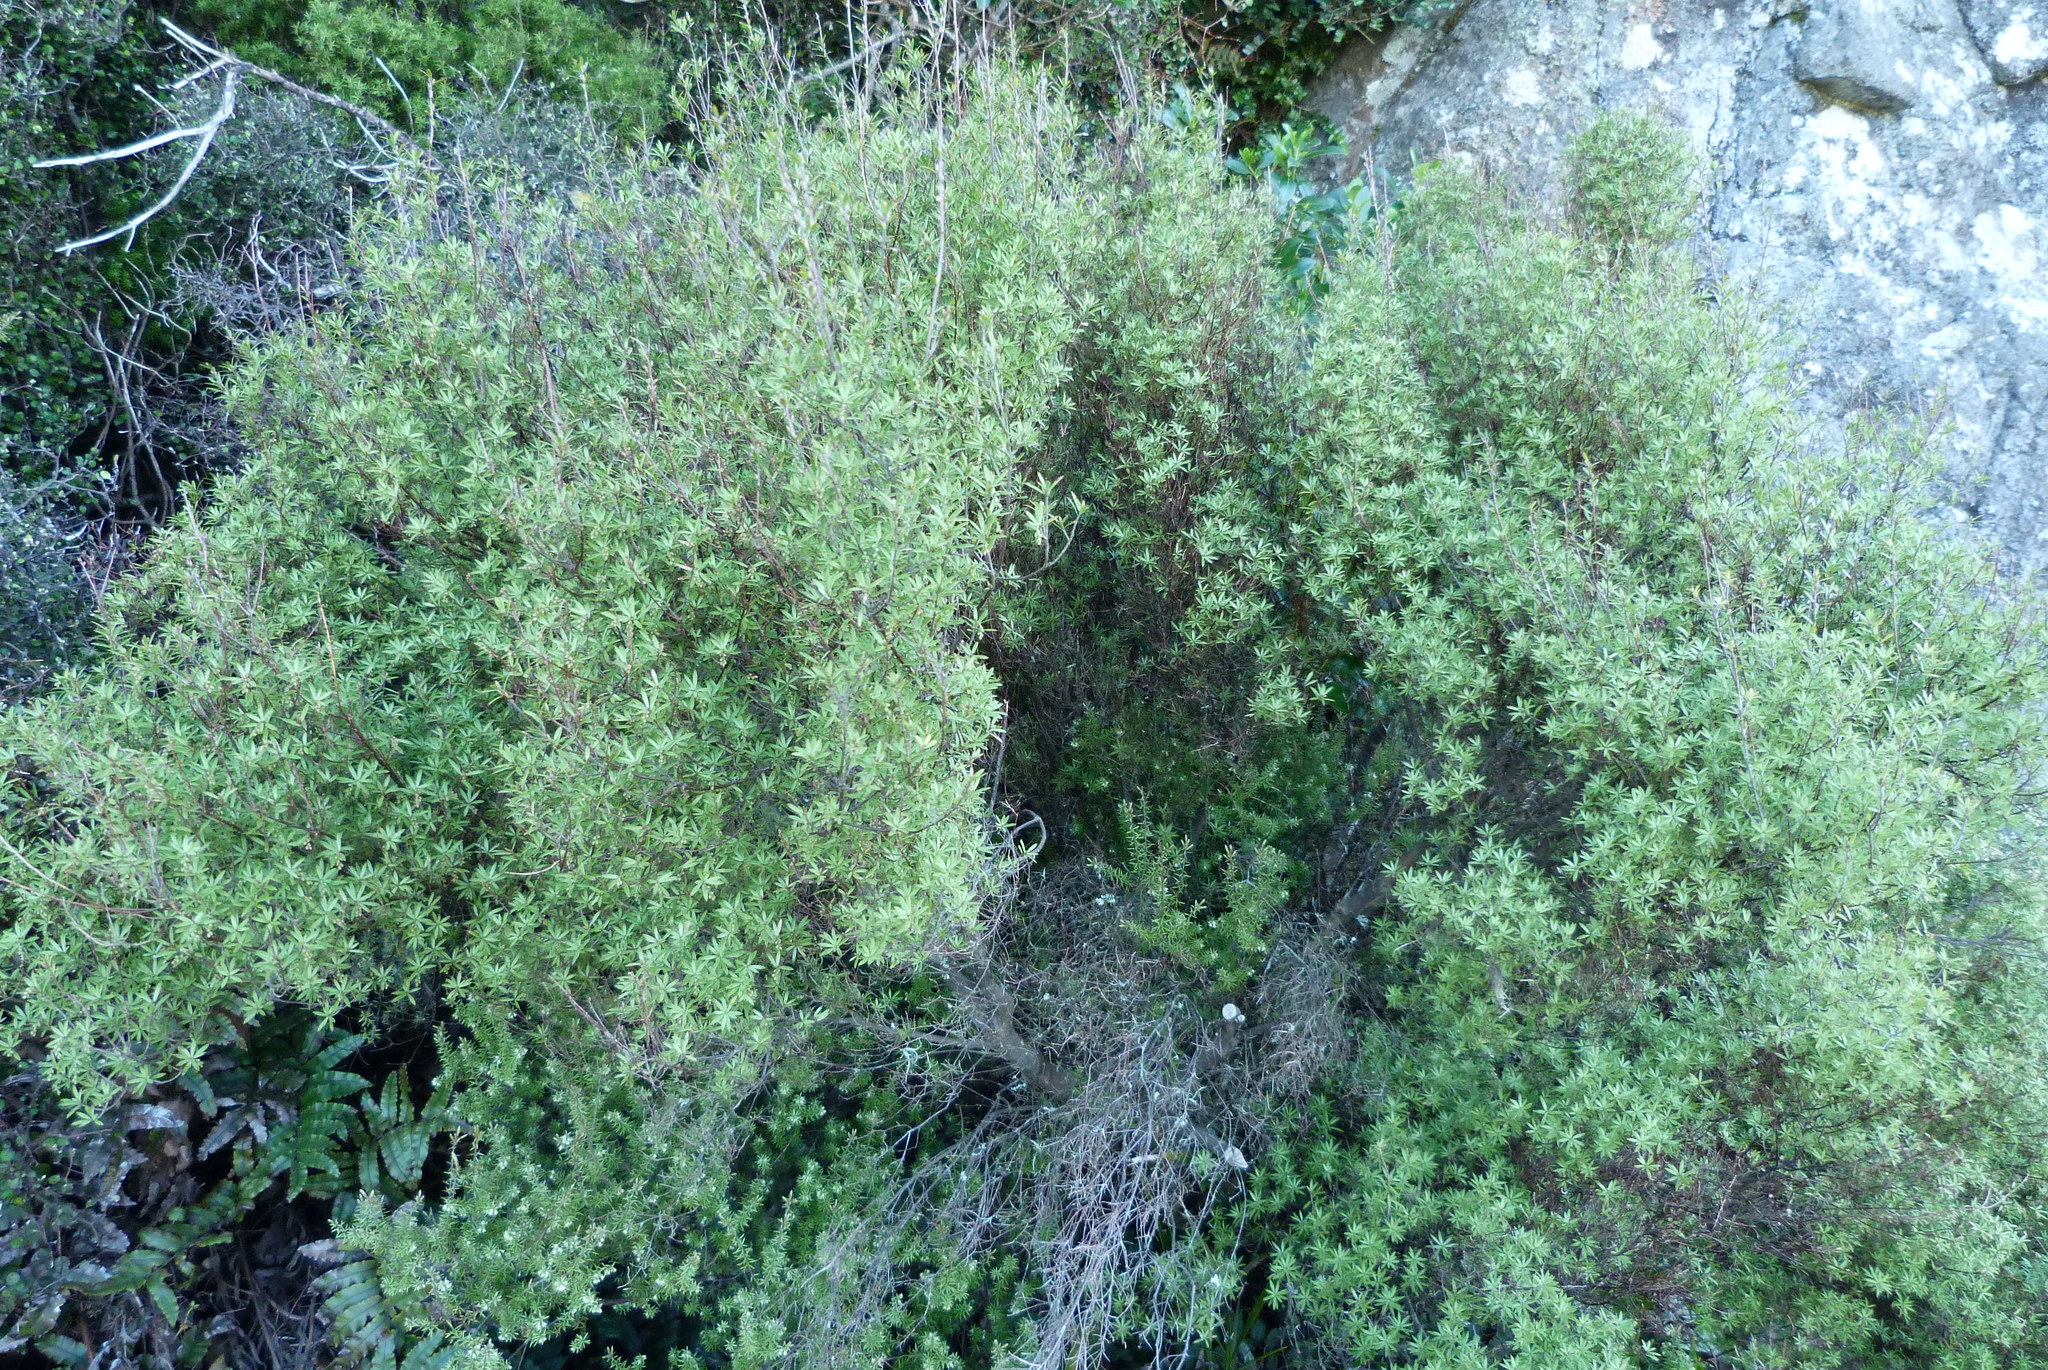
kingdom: Plantae
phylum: Tracheophyta
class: Magnoliopsida
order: Ericales
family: Ericaceae
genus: Leucopogon
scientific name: Leucopogon fasciculatus
